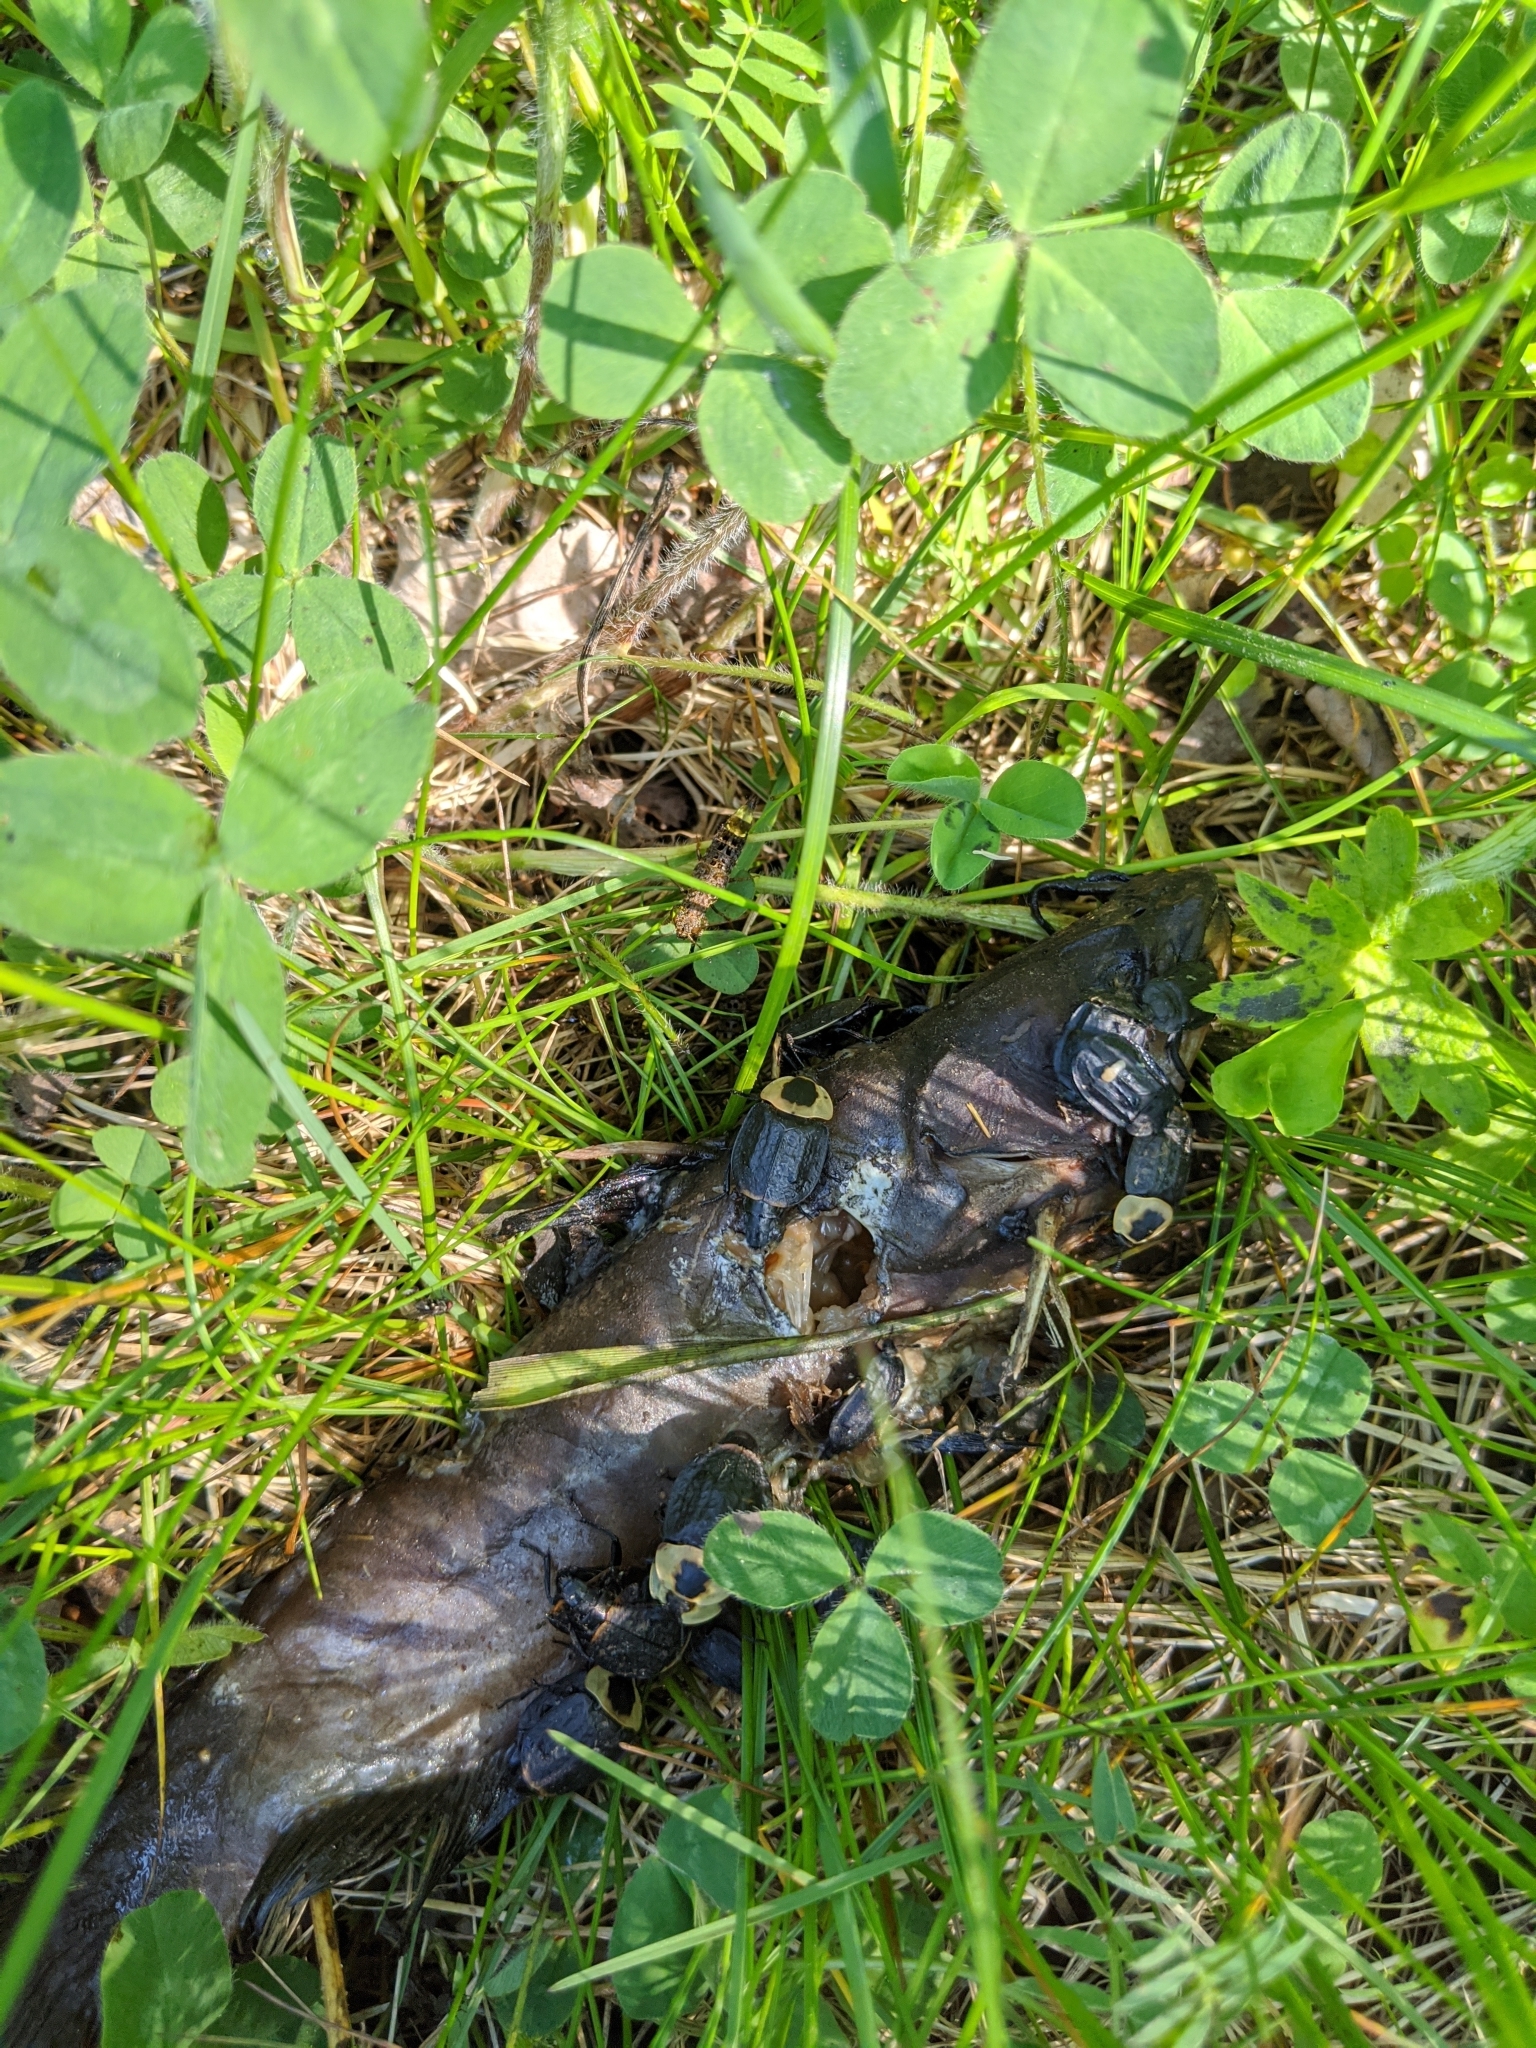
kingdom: Animalia
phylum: Arthropoda
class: Insecta
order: Coleoptera
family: Staphylinidae
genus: Necrophila
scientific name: Necrophila americana
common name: American carrion beetle
